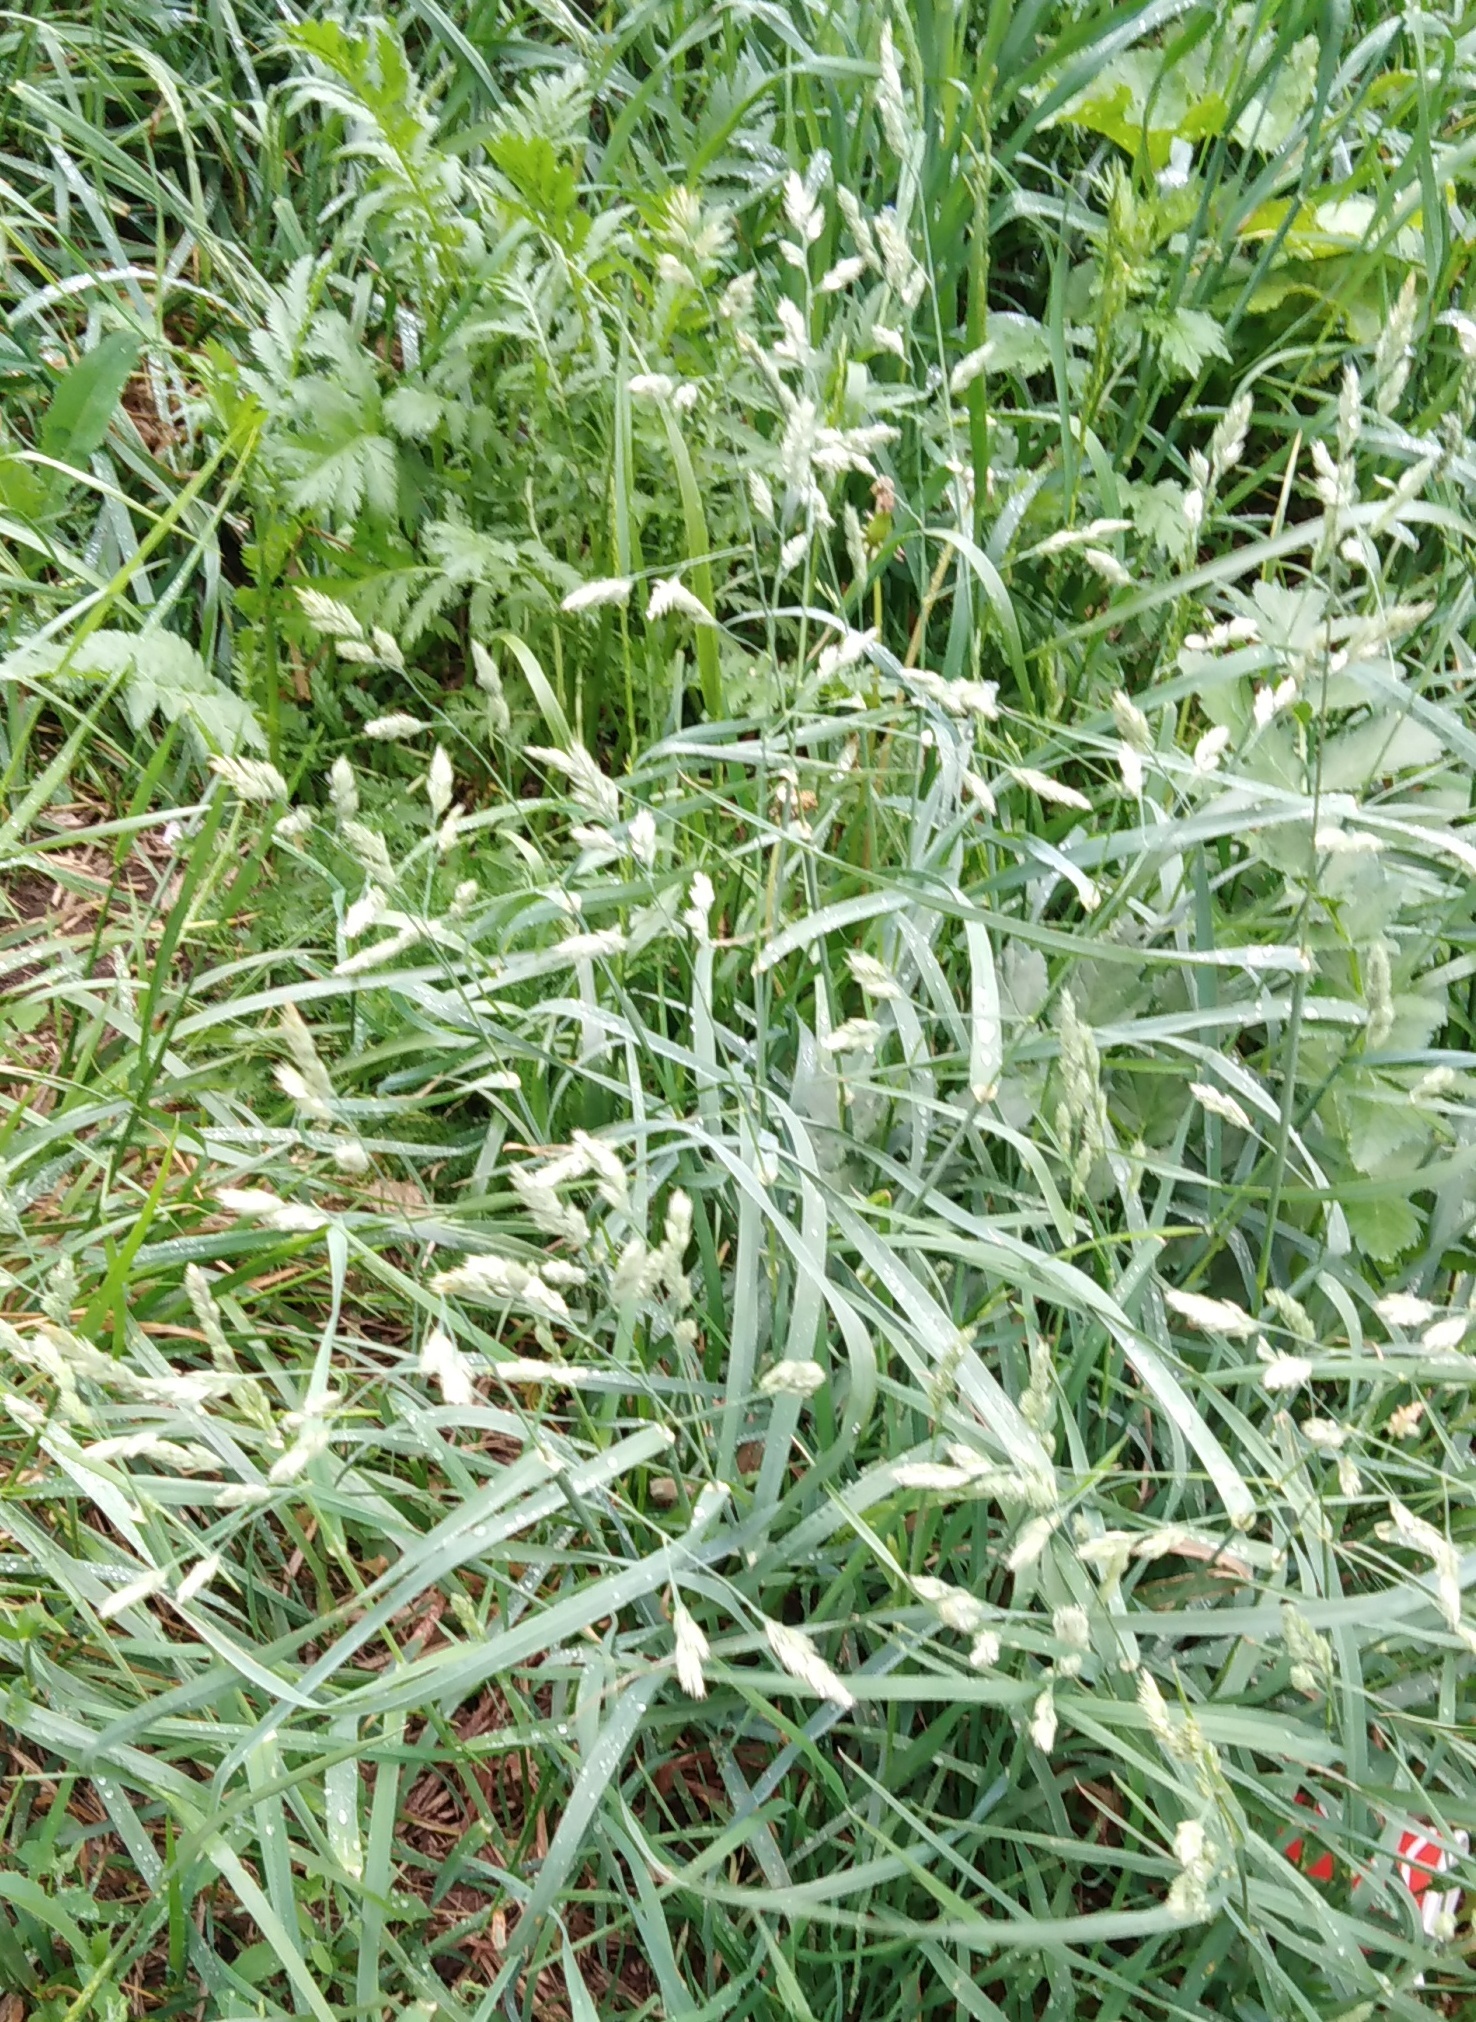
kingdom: Plantae
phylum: Tracheophyta
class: Liliopsida
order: Poales
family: Poaceae
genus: Dactylis
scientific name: Dactylis glomerata
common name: Orchardgrass
